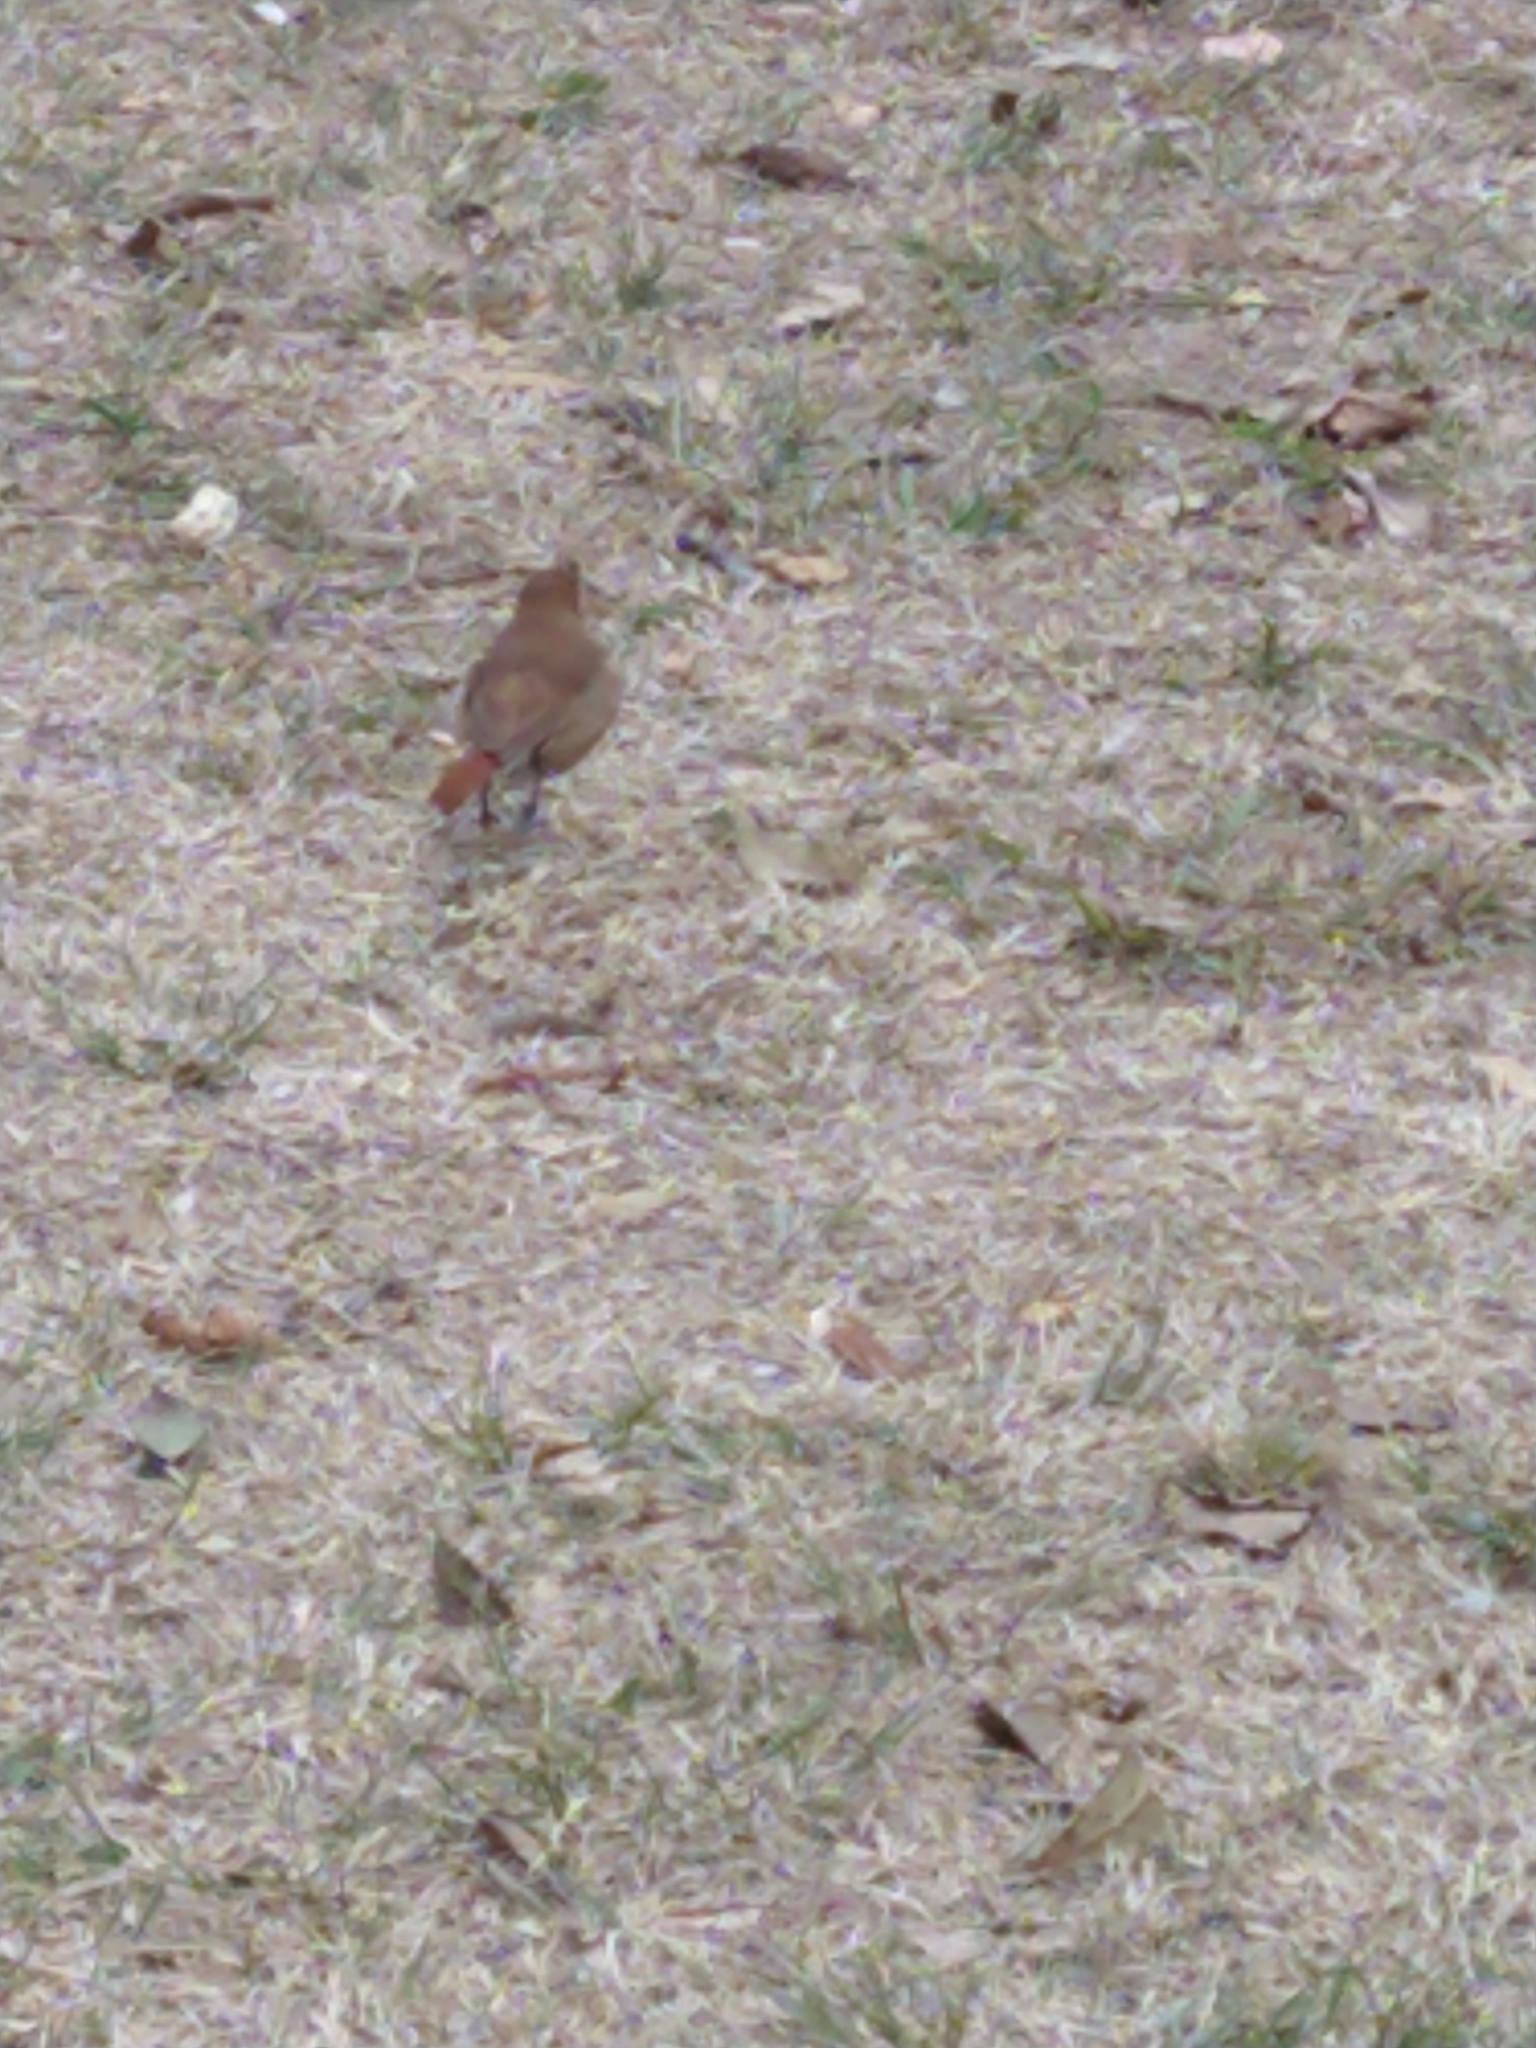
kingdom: Animalia
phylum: Chordata
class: Aves
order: Passeriformes
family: Furnariidae
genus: Furnarius
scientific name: Furnarius rufus
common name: Rufous hornero
